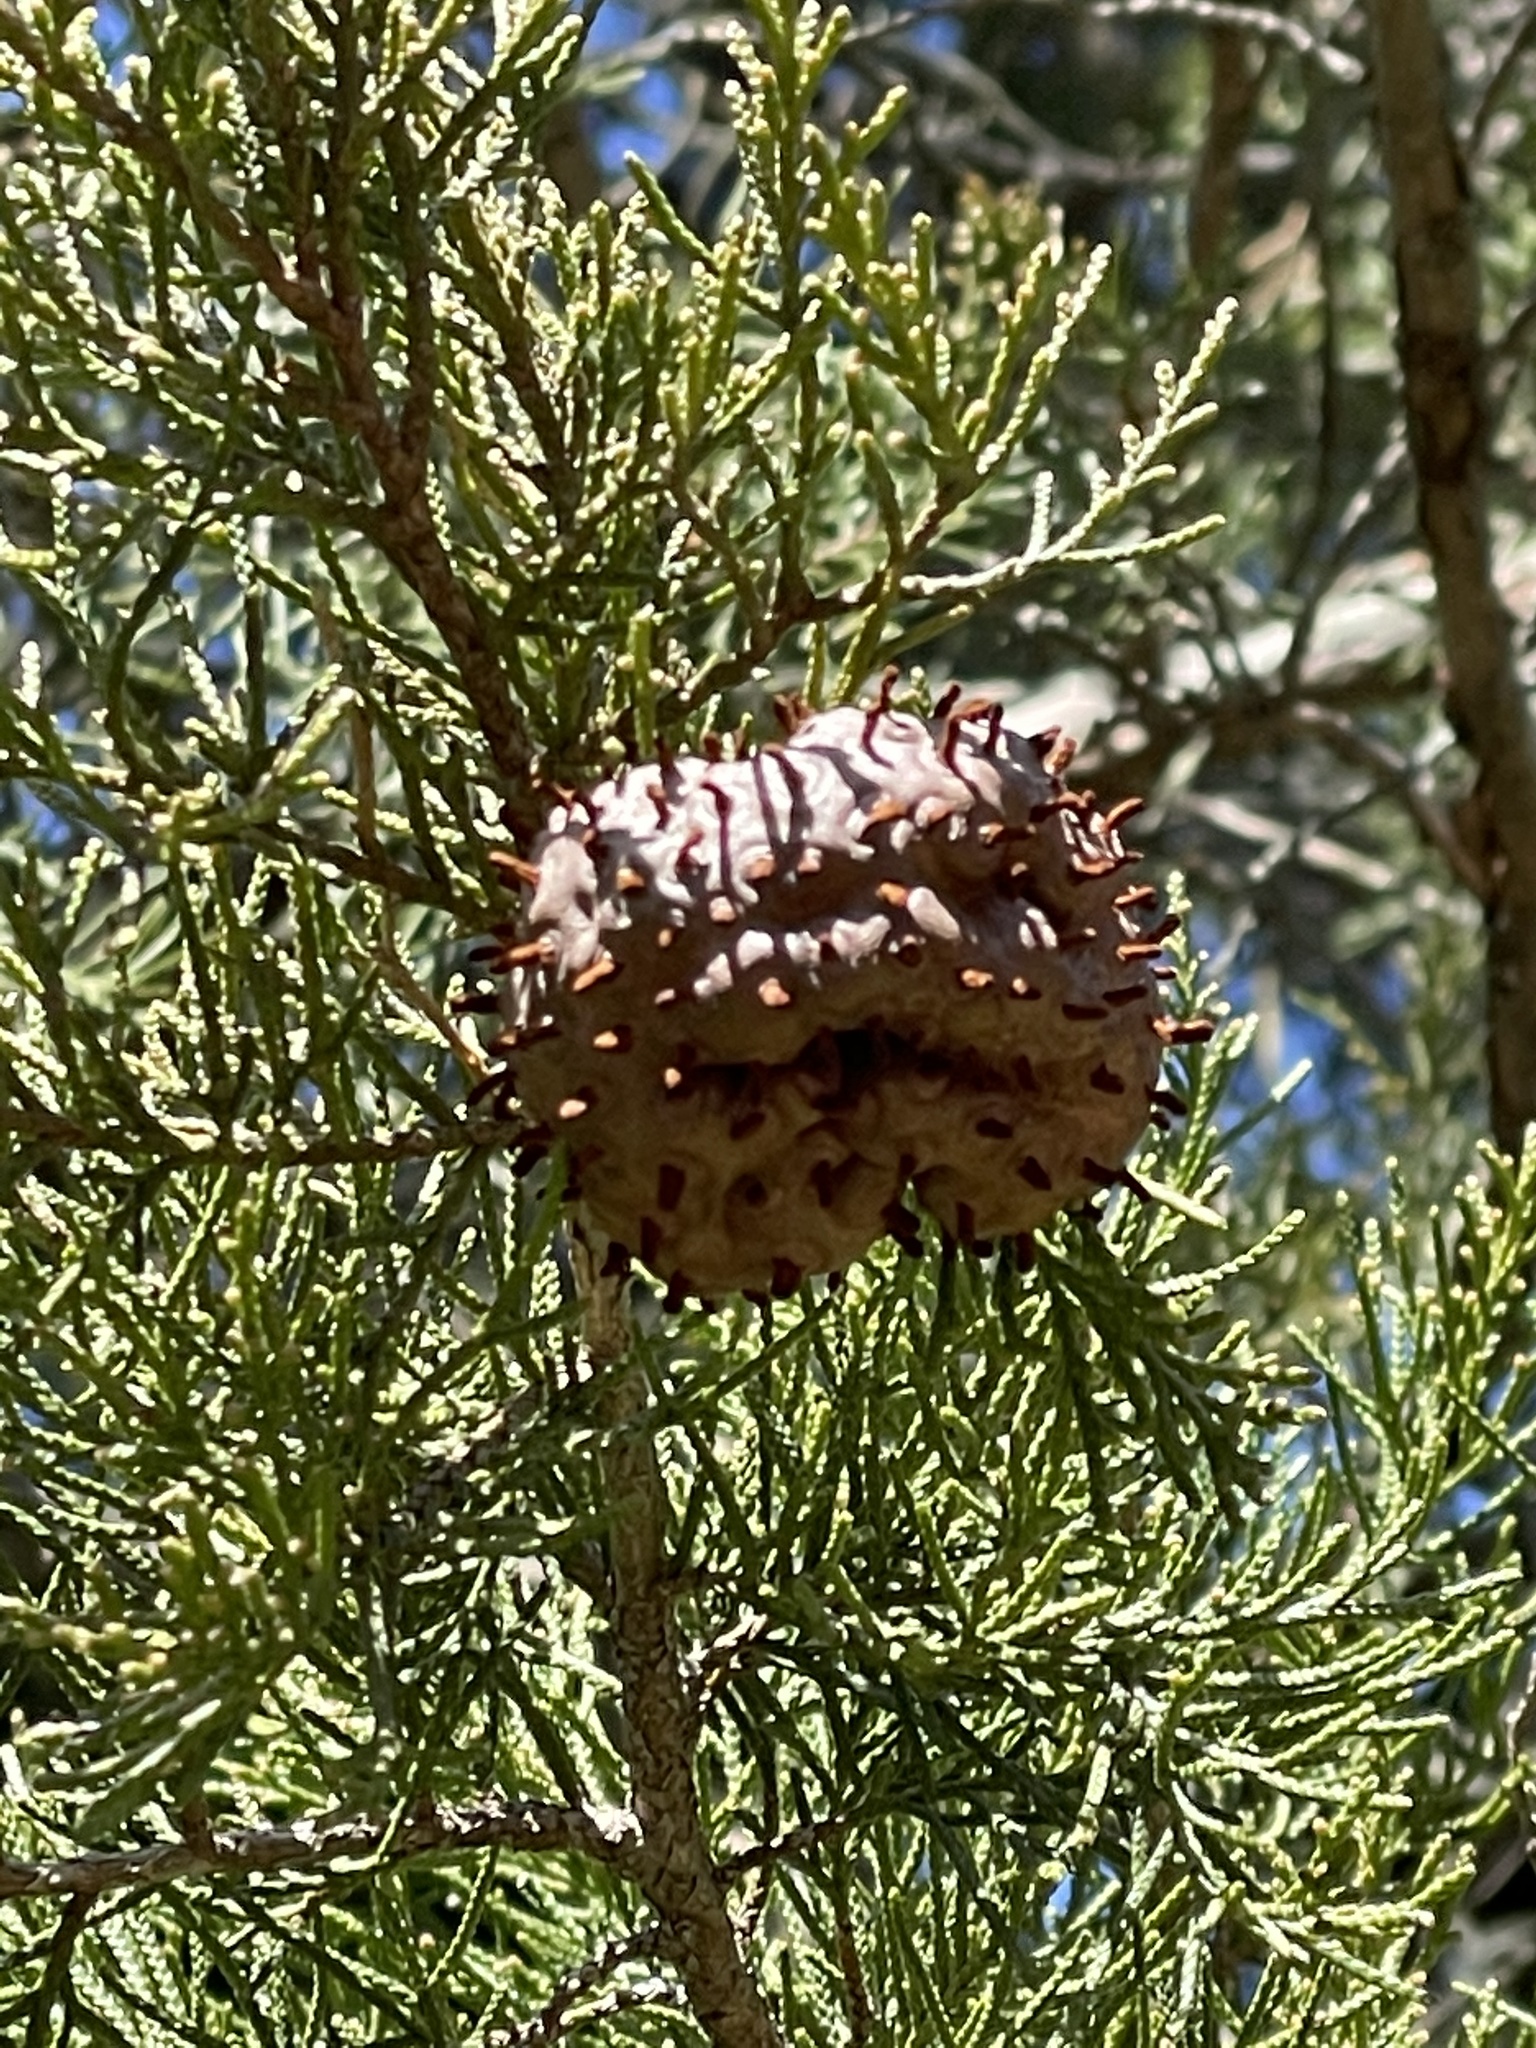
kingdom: Fungi
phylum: Basidiomycota
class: Pucciniomycetes
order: Pucciniales
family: Gymnosporangiaceae
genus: Gymnosporangium
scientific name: Gymnosporangium juniperi-virginianae
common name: Juniper-apple rust
